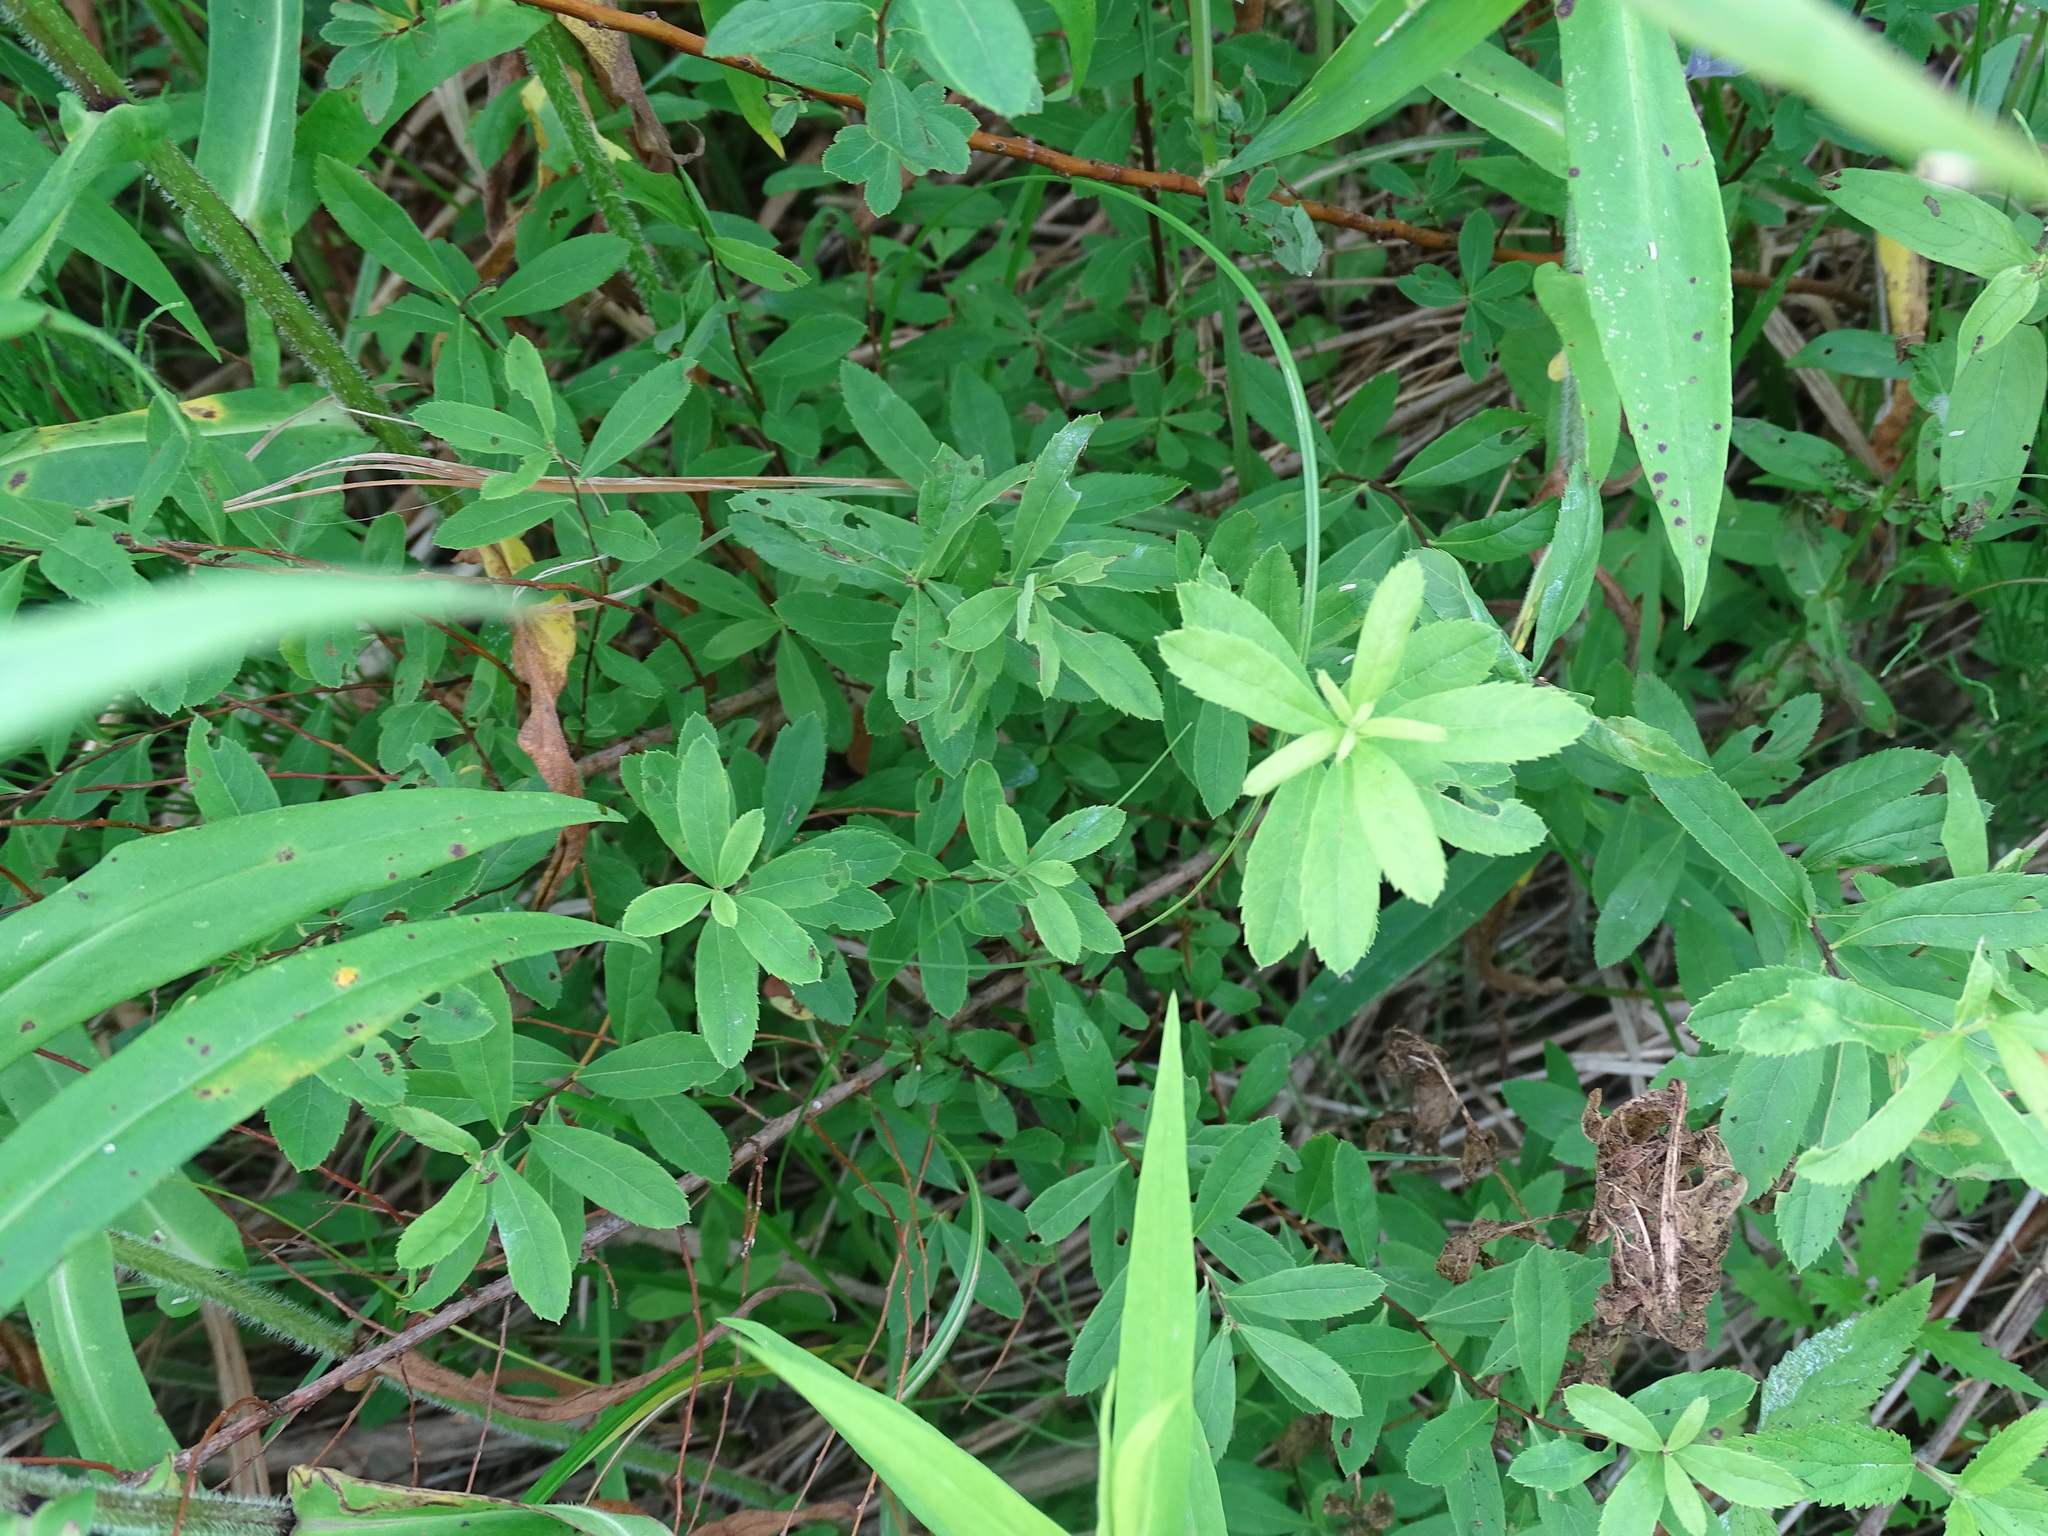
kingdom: Plantae
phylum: Tracheophyta
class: Magnoliopsida
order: Rosales
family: Rosaceae
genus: Spiraea
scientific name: Spiraea alba
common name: Pale bridewort
